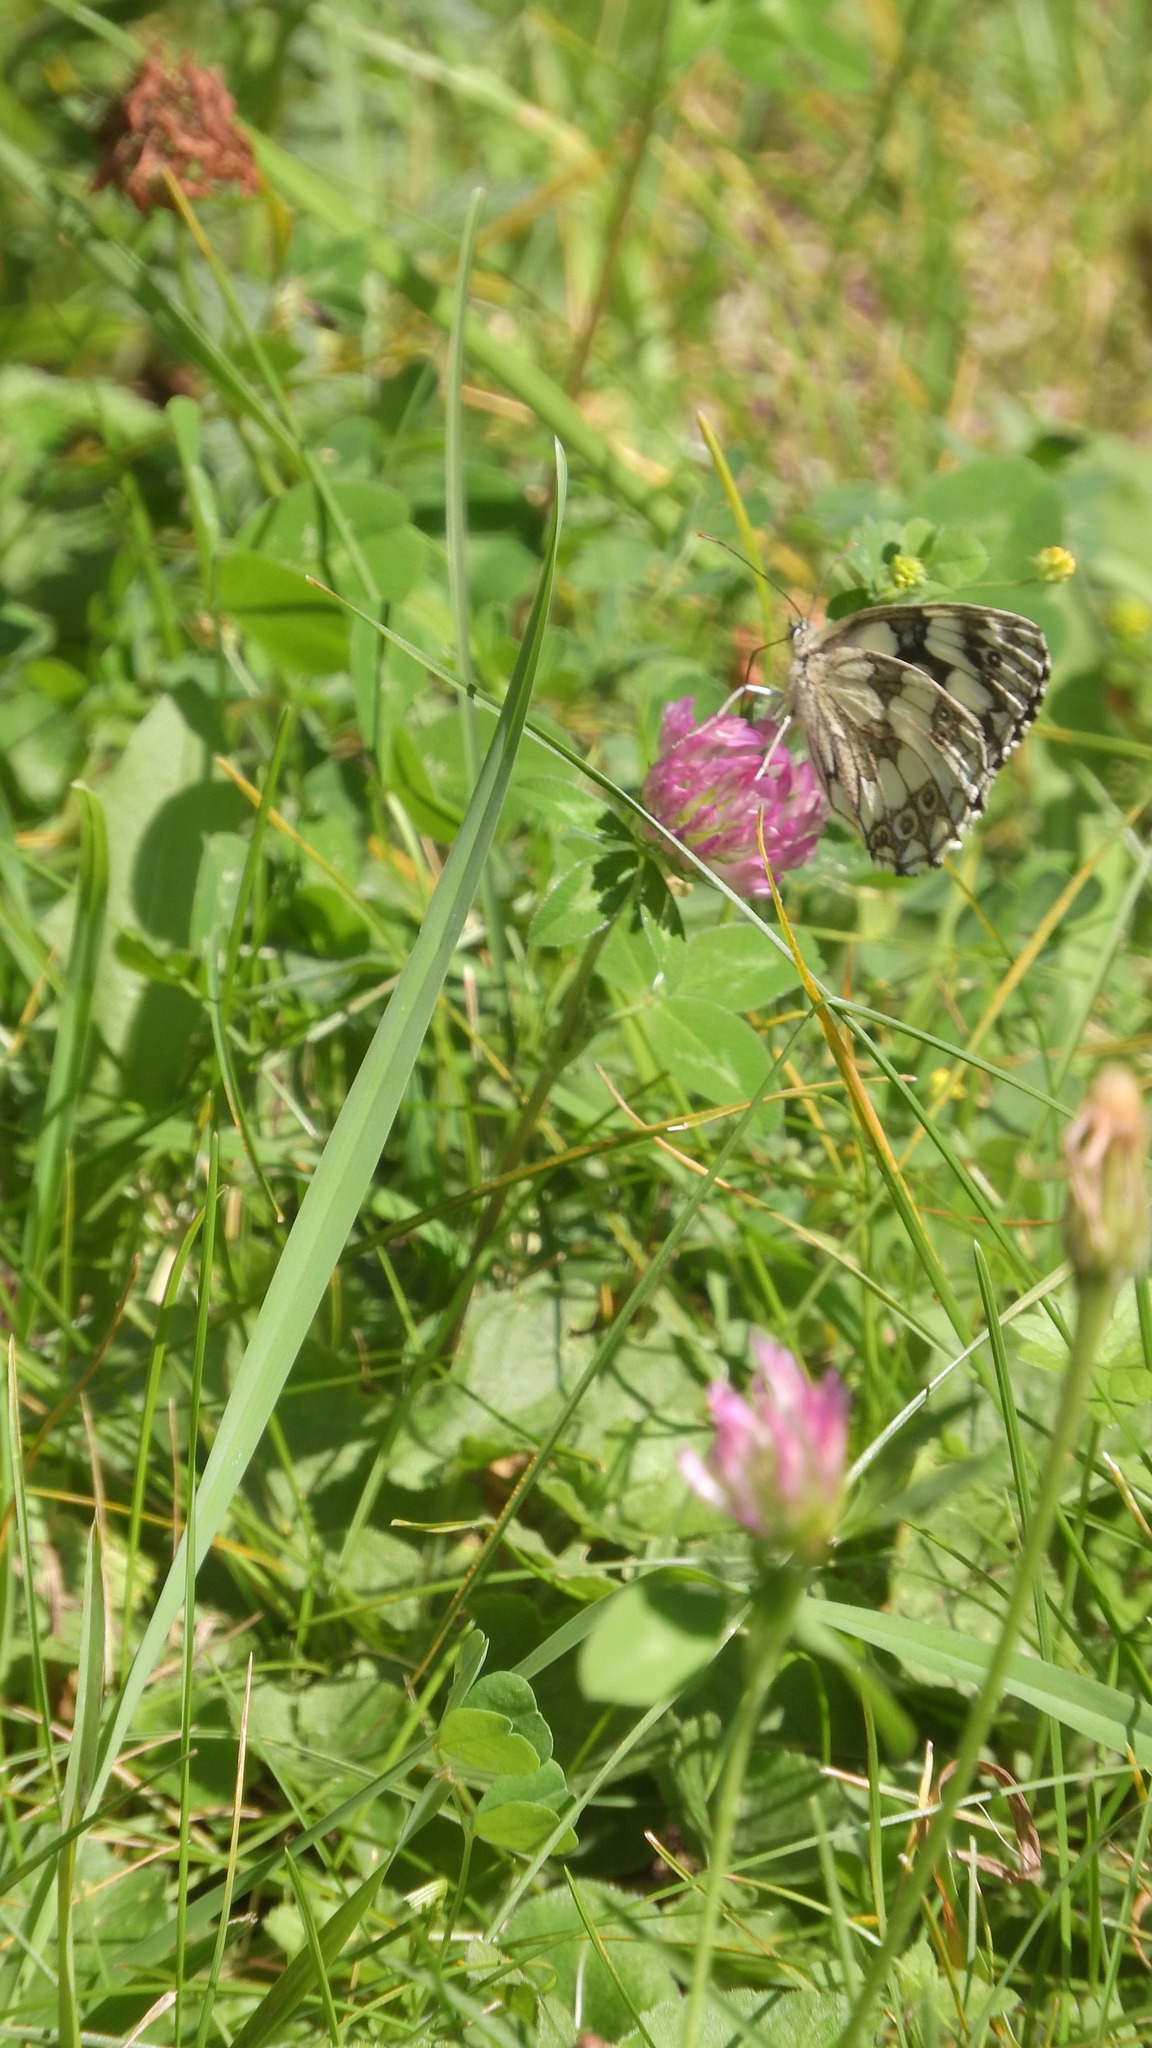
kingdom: Animalia
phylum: Arthropoda
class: Insecta
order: Lepidoptera
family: Nymphalidae
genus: Melanargia
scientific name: Melanargia galathea
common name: Marbled white
